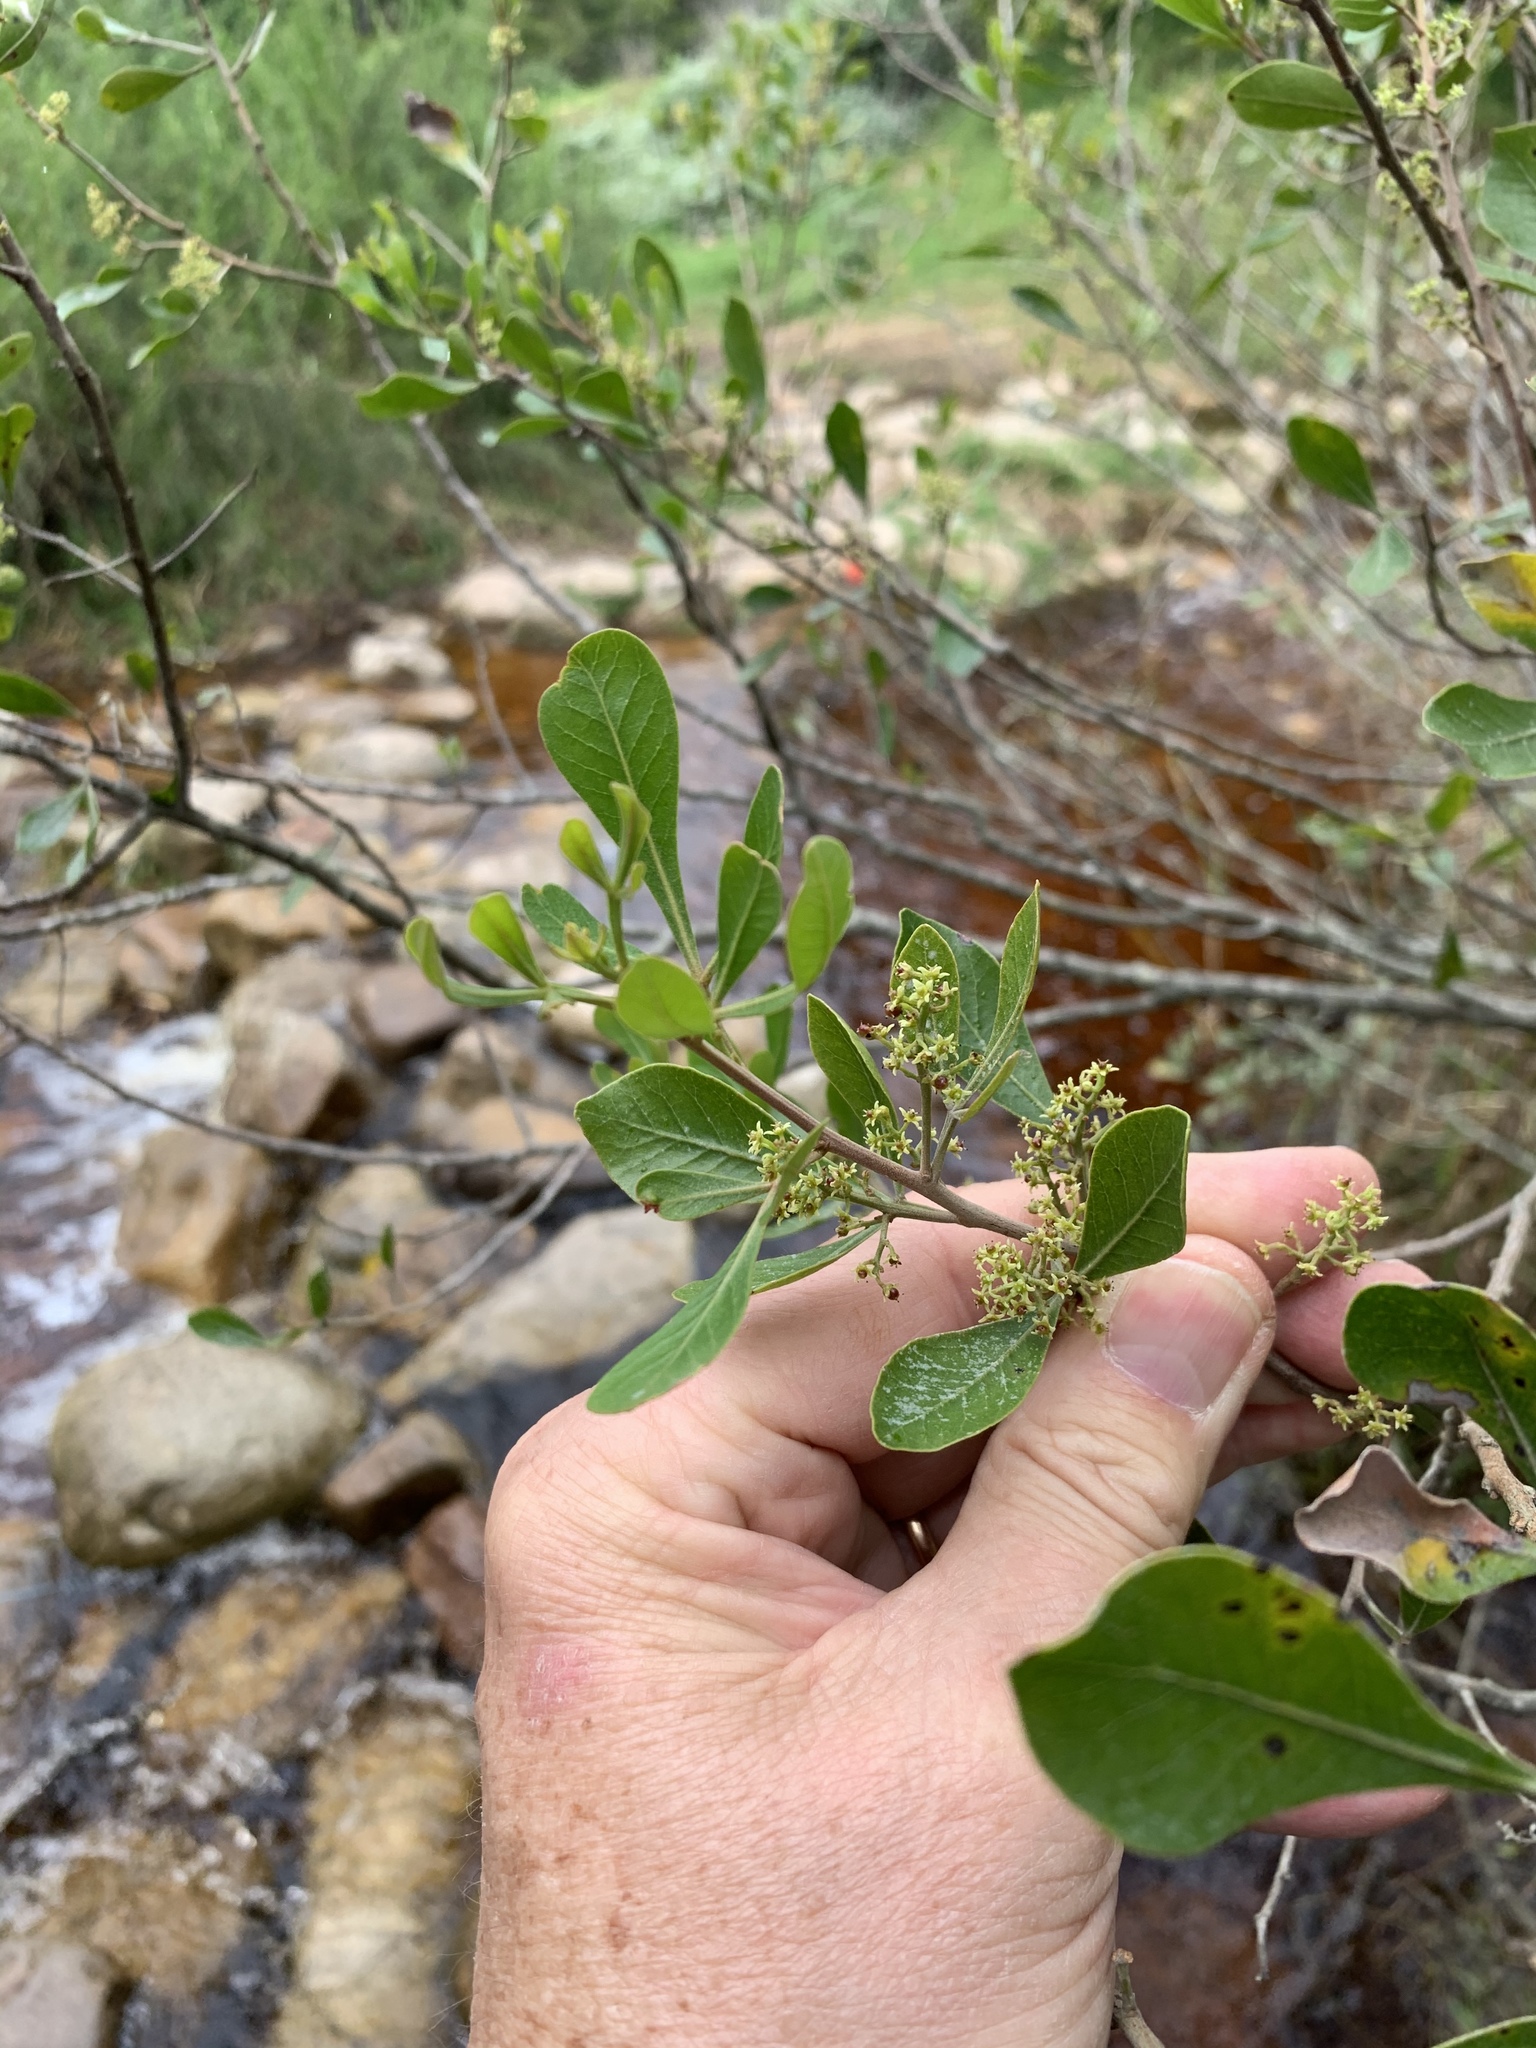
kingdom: Plantae
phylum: Tracheophyta
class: Magnoliopsida
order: Sapindales
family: Anacardiaceae
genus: Searsia
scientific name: Searsia lucida
